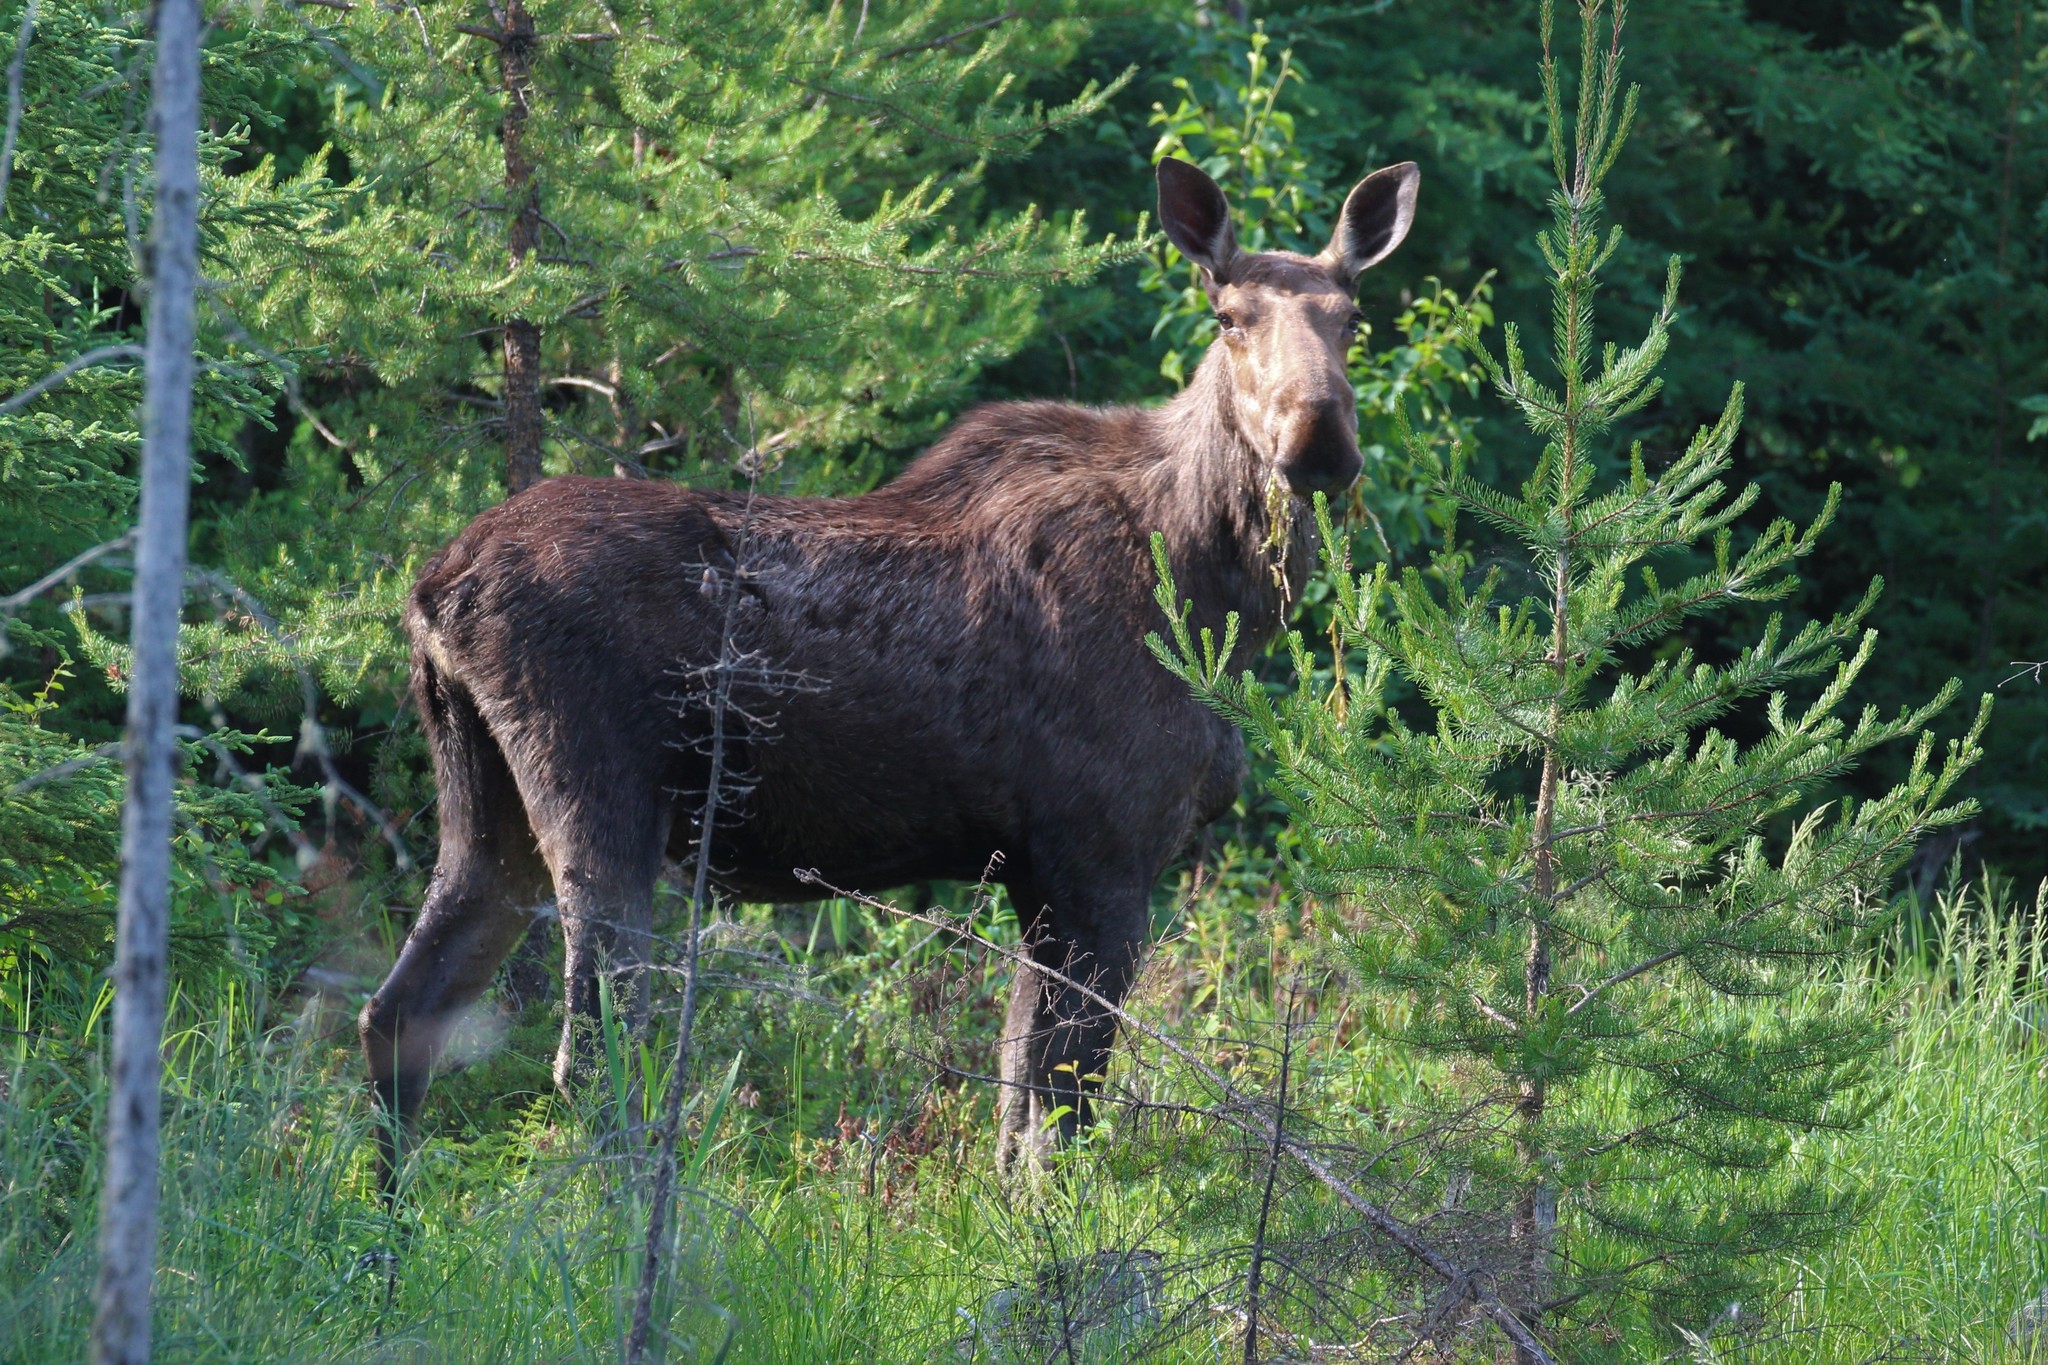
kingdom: Animalia
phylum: Chordata
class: Mammalia
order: Artiodactyla
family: Cervidae
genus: Alces
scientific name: Alces alces
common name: Moose
